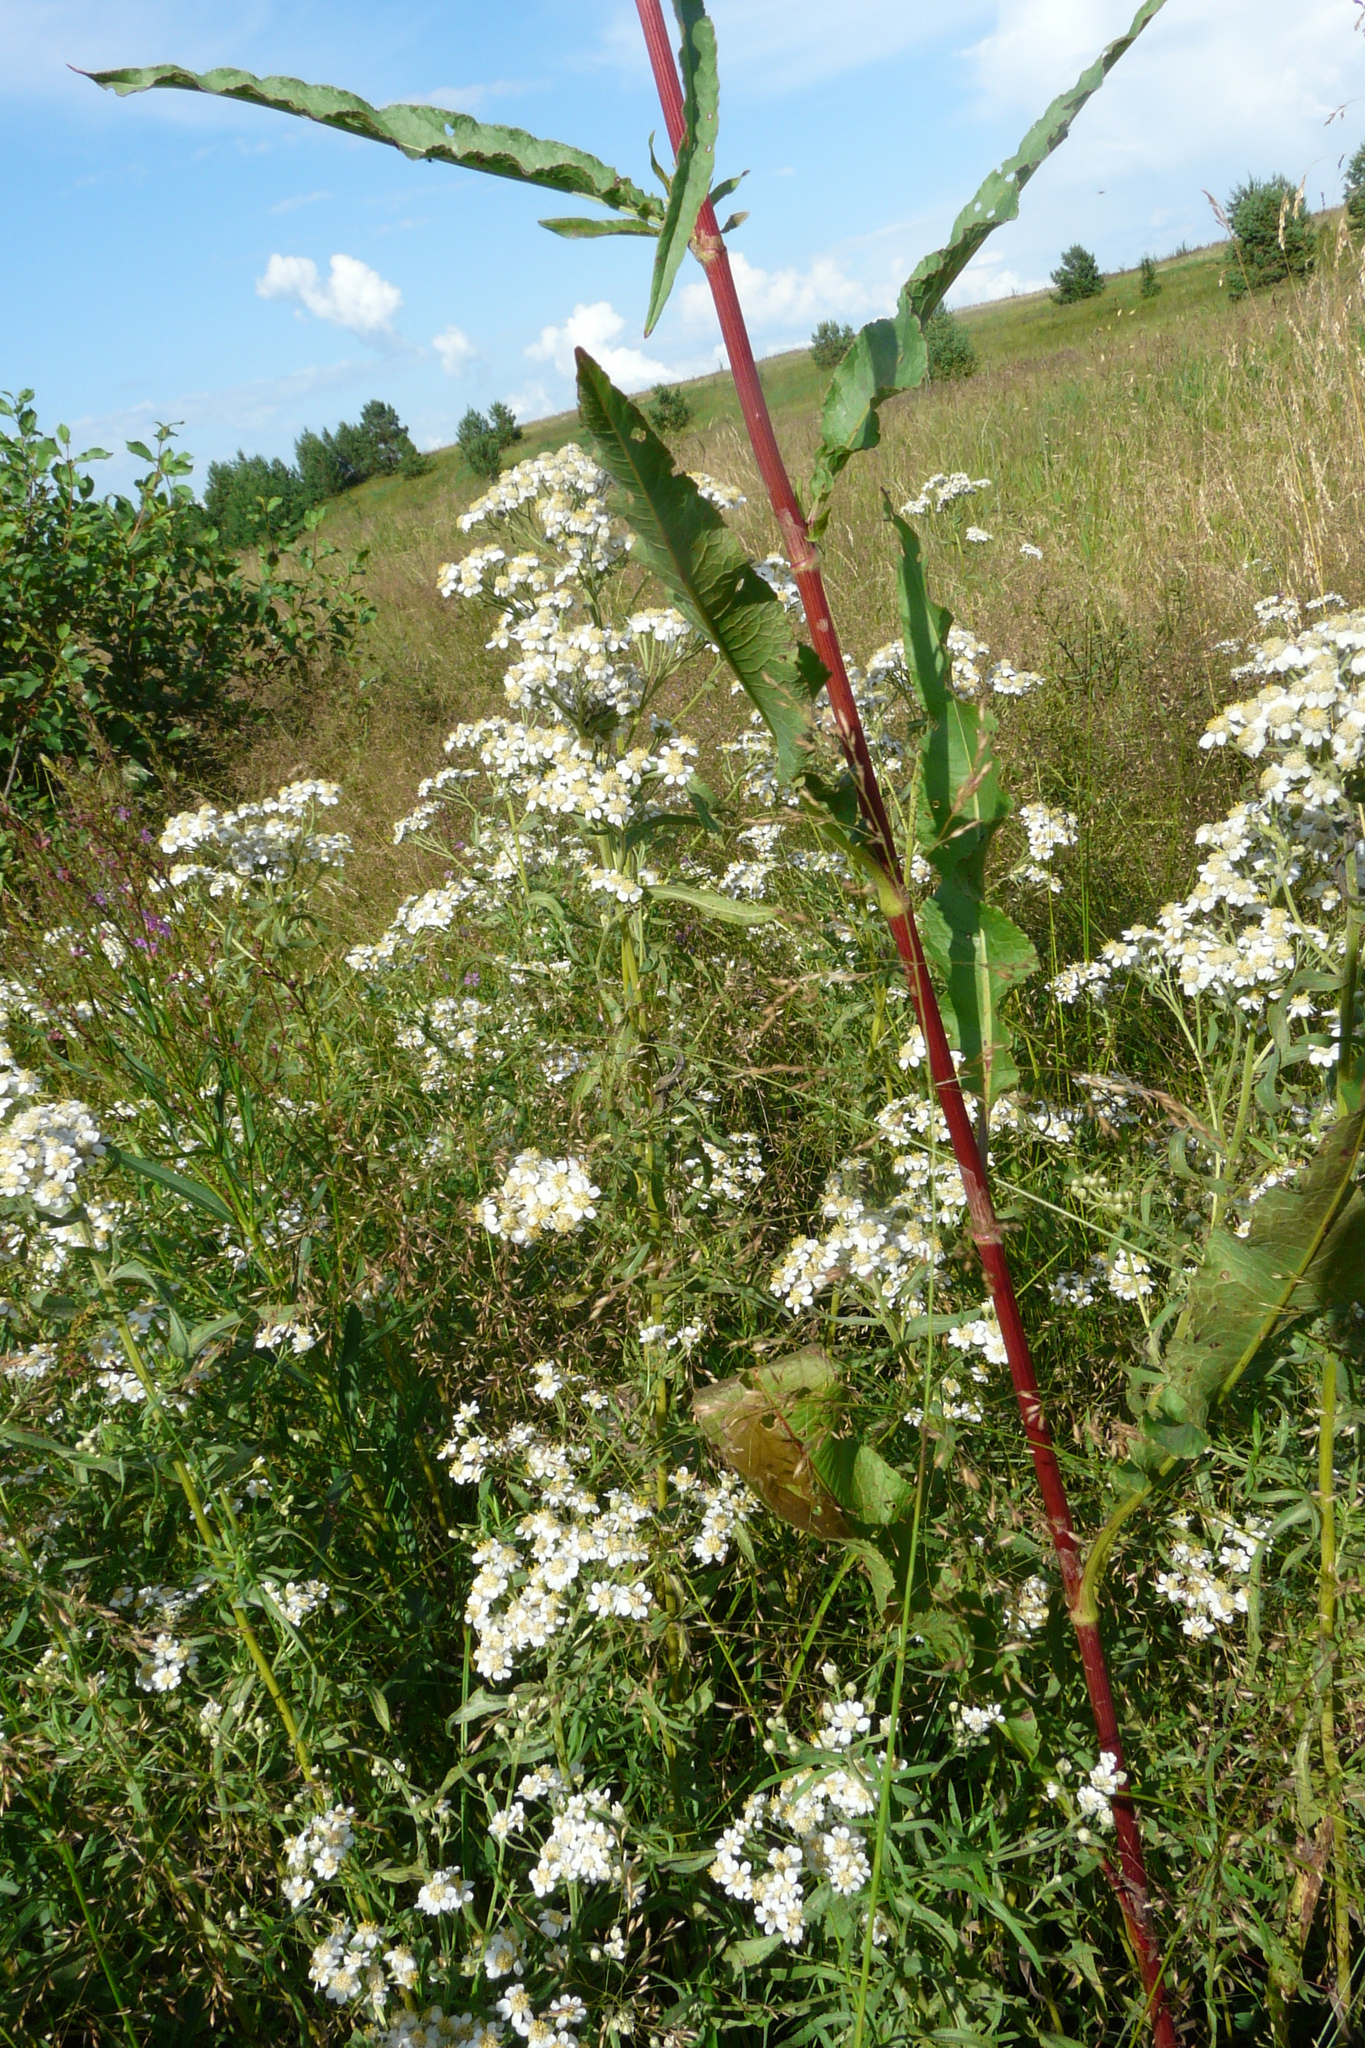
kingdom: Plantae
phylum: Tracheophyta
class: Magnoliopsida
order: Caryophyllales
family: Polygonaceae
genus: Rumex
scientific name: Rumex pseudonatronatus
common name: Field dock
